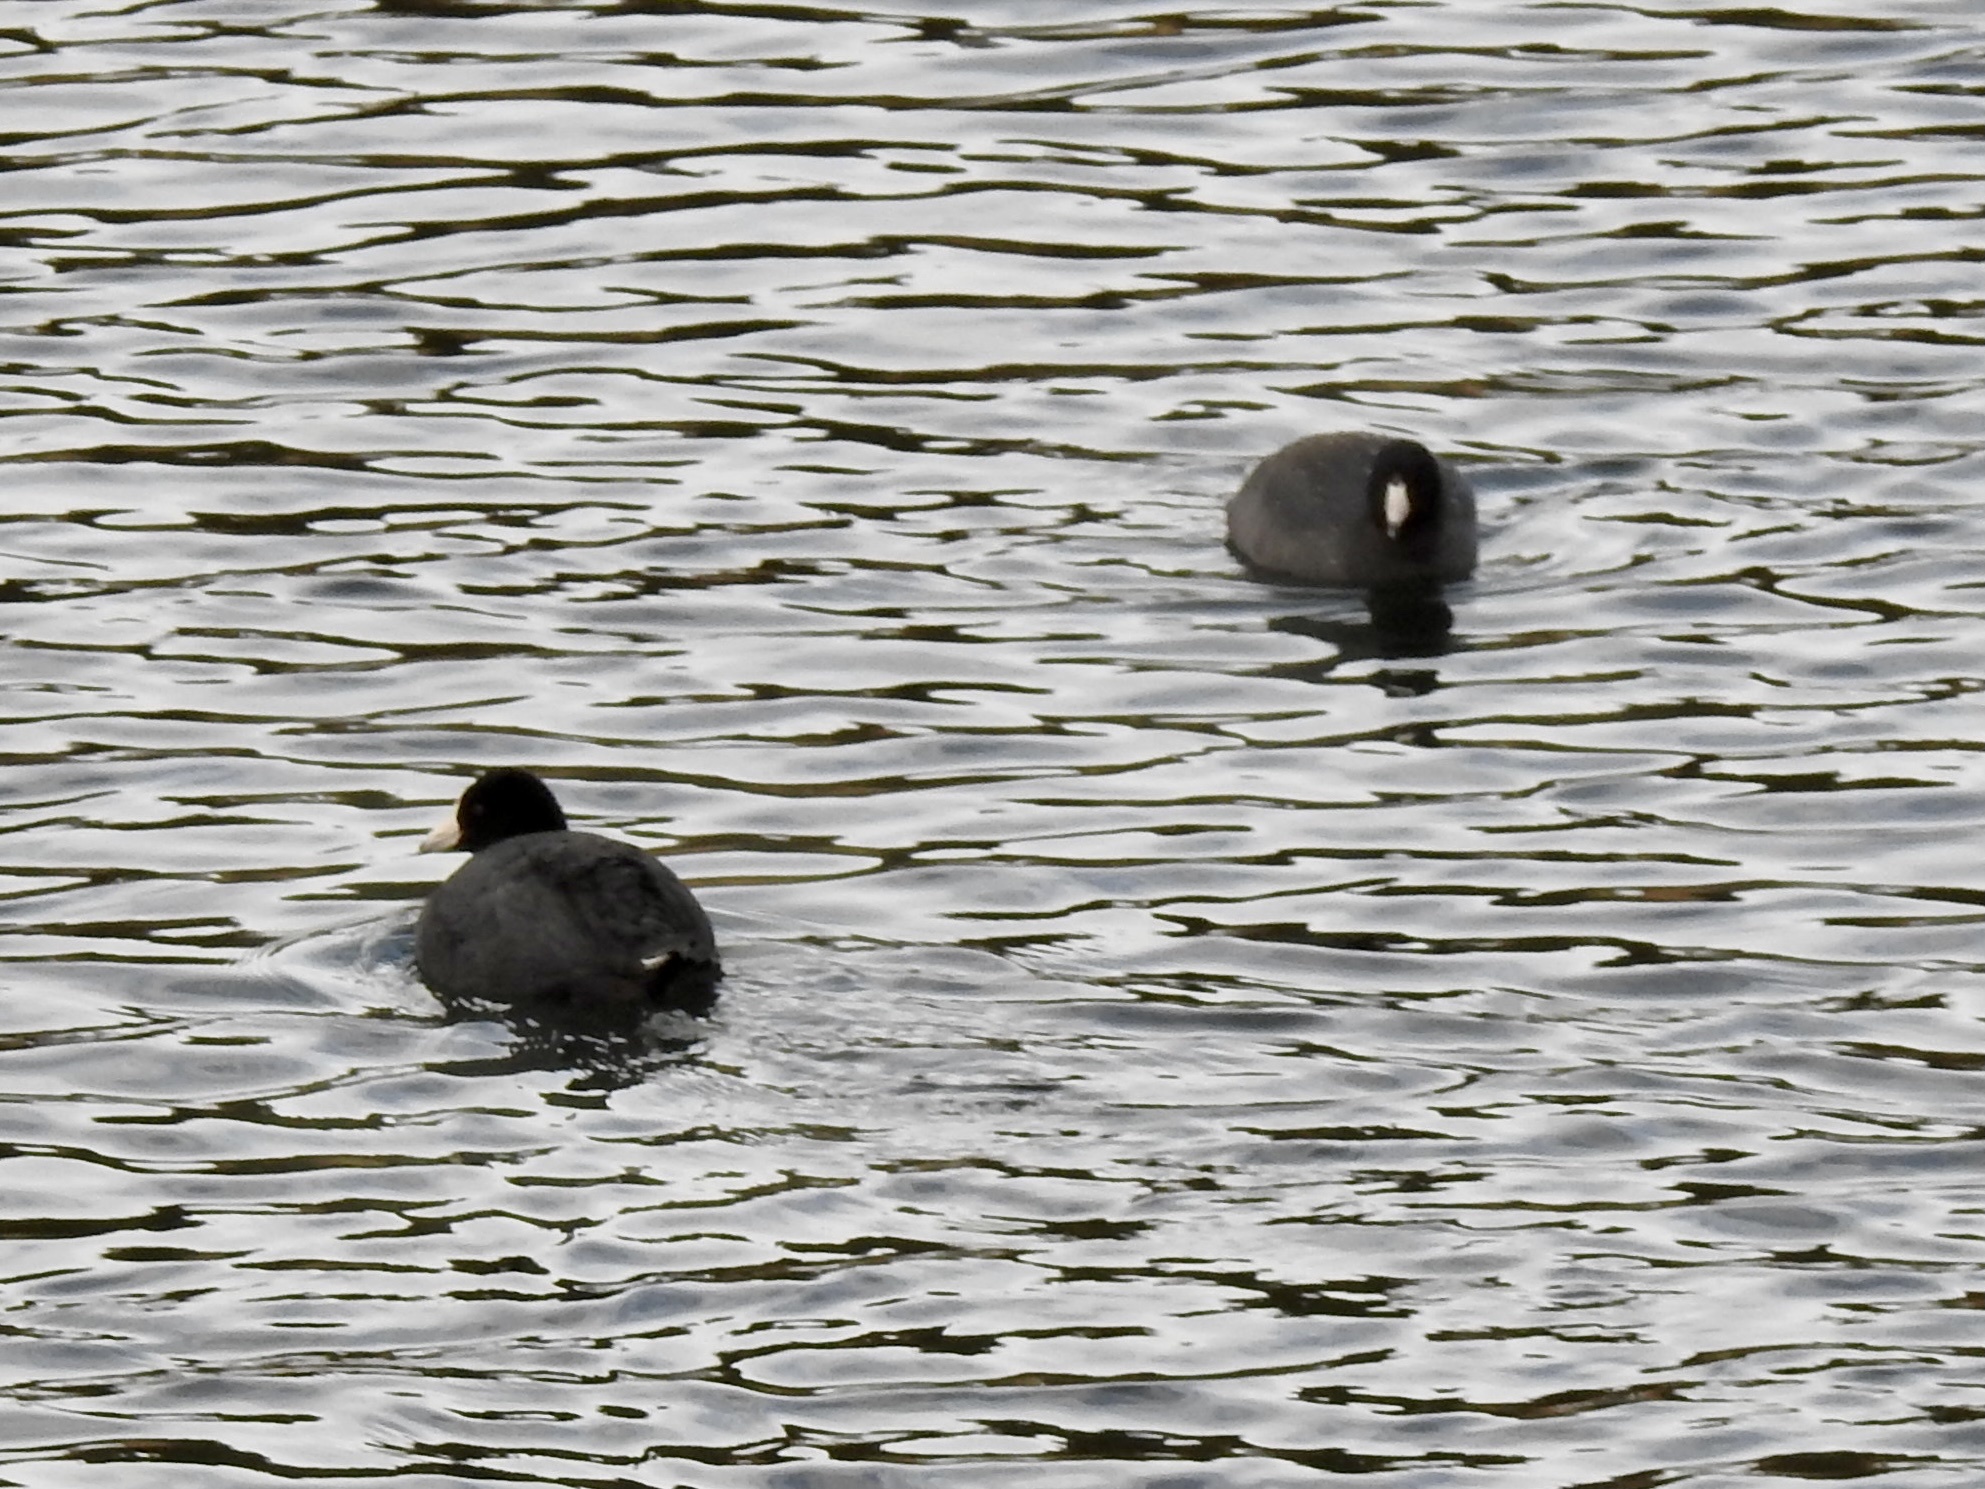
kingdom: Animalia
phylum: Chordata
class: Aves
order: Gruiformes
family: Rallidae
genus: Fulica
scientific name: Fulica americana
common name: American coot
